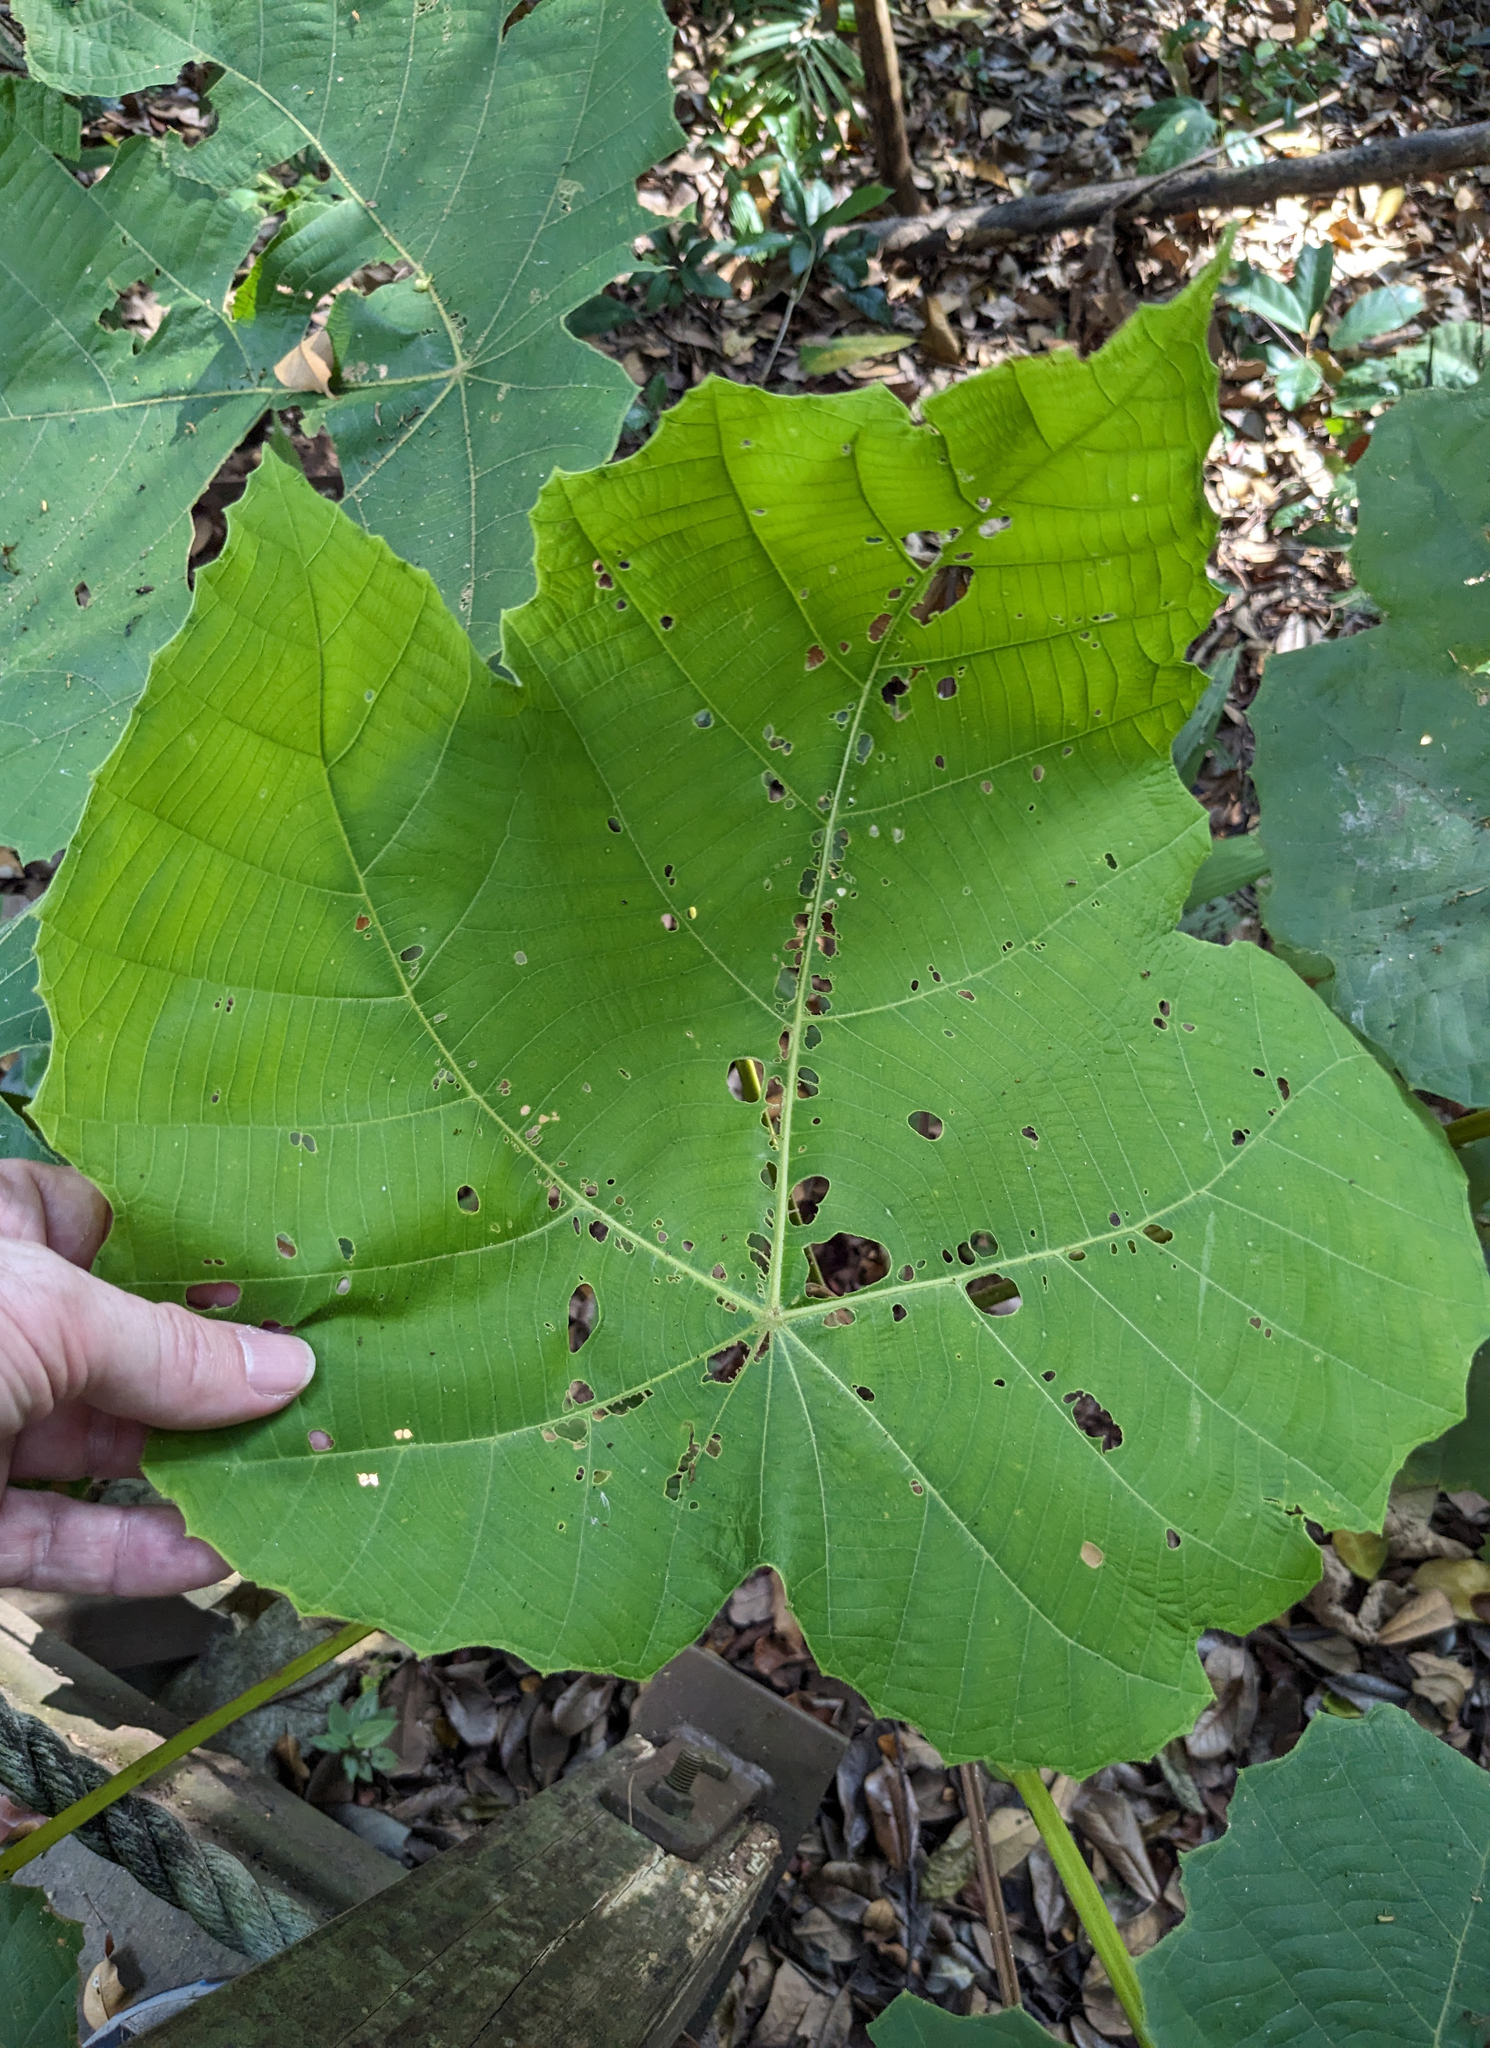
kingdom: Plantae
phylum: Tracheophyta
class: Magnoliopsida
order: Malpighiales
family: Euphorbiaceae
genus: Macaranga
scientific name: Macaranga gigantea
